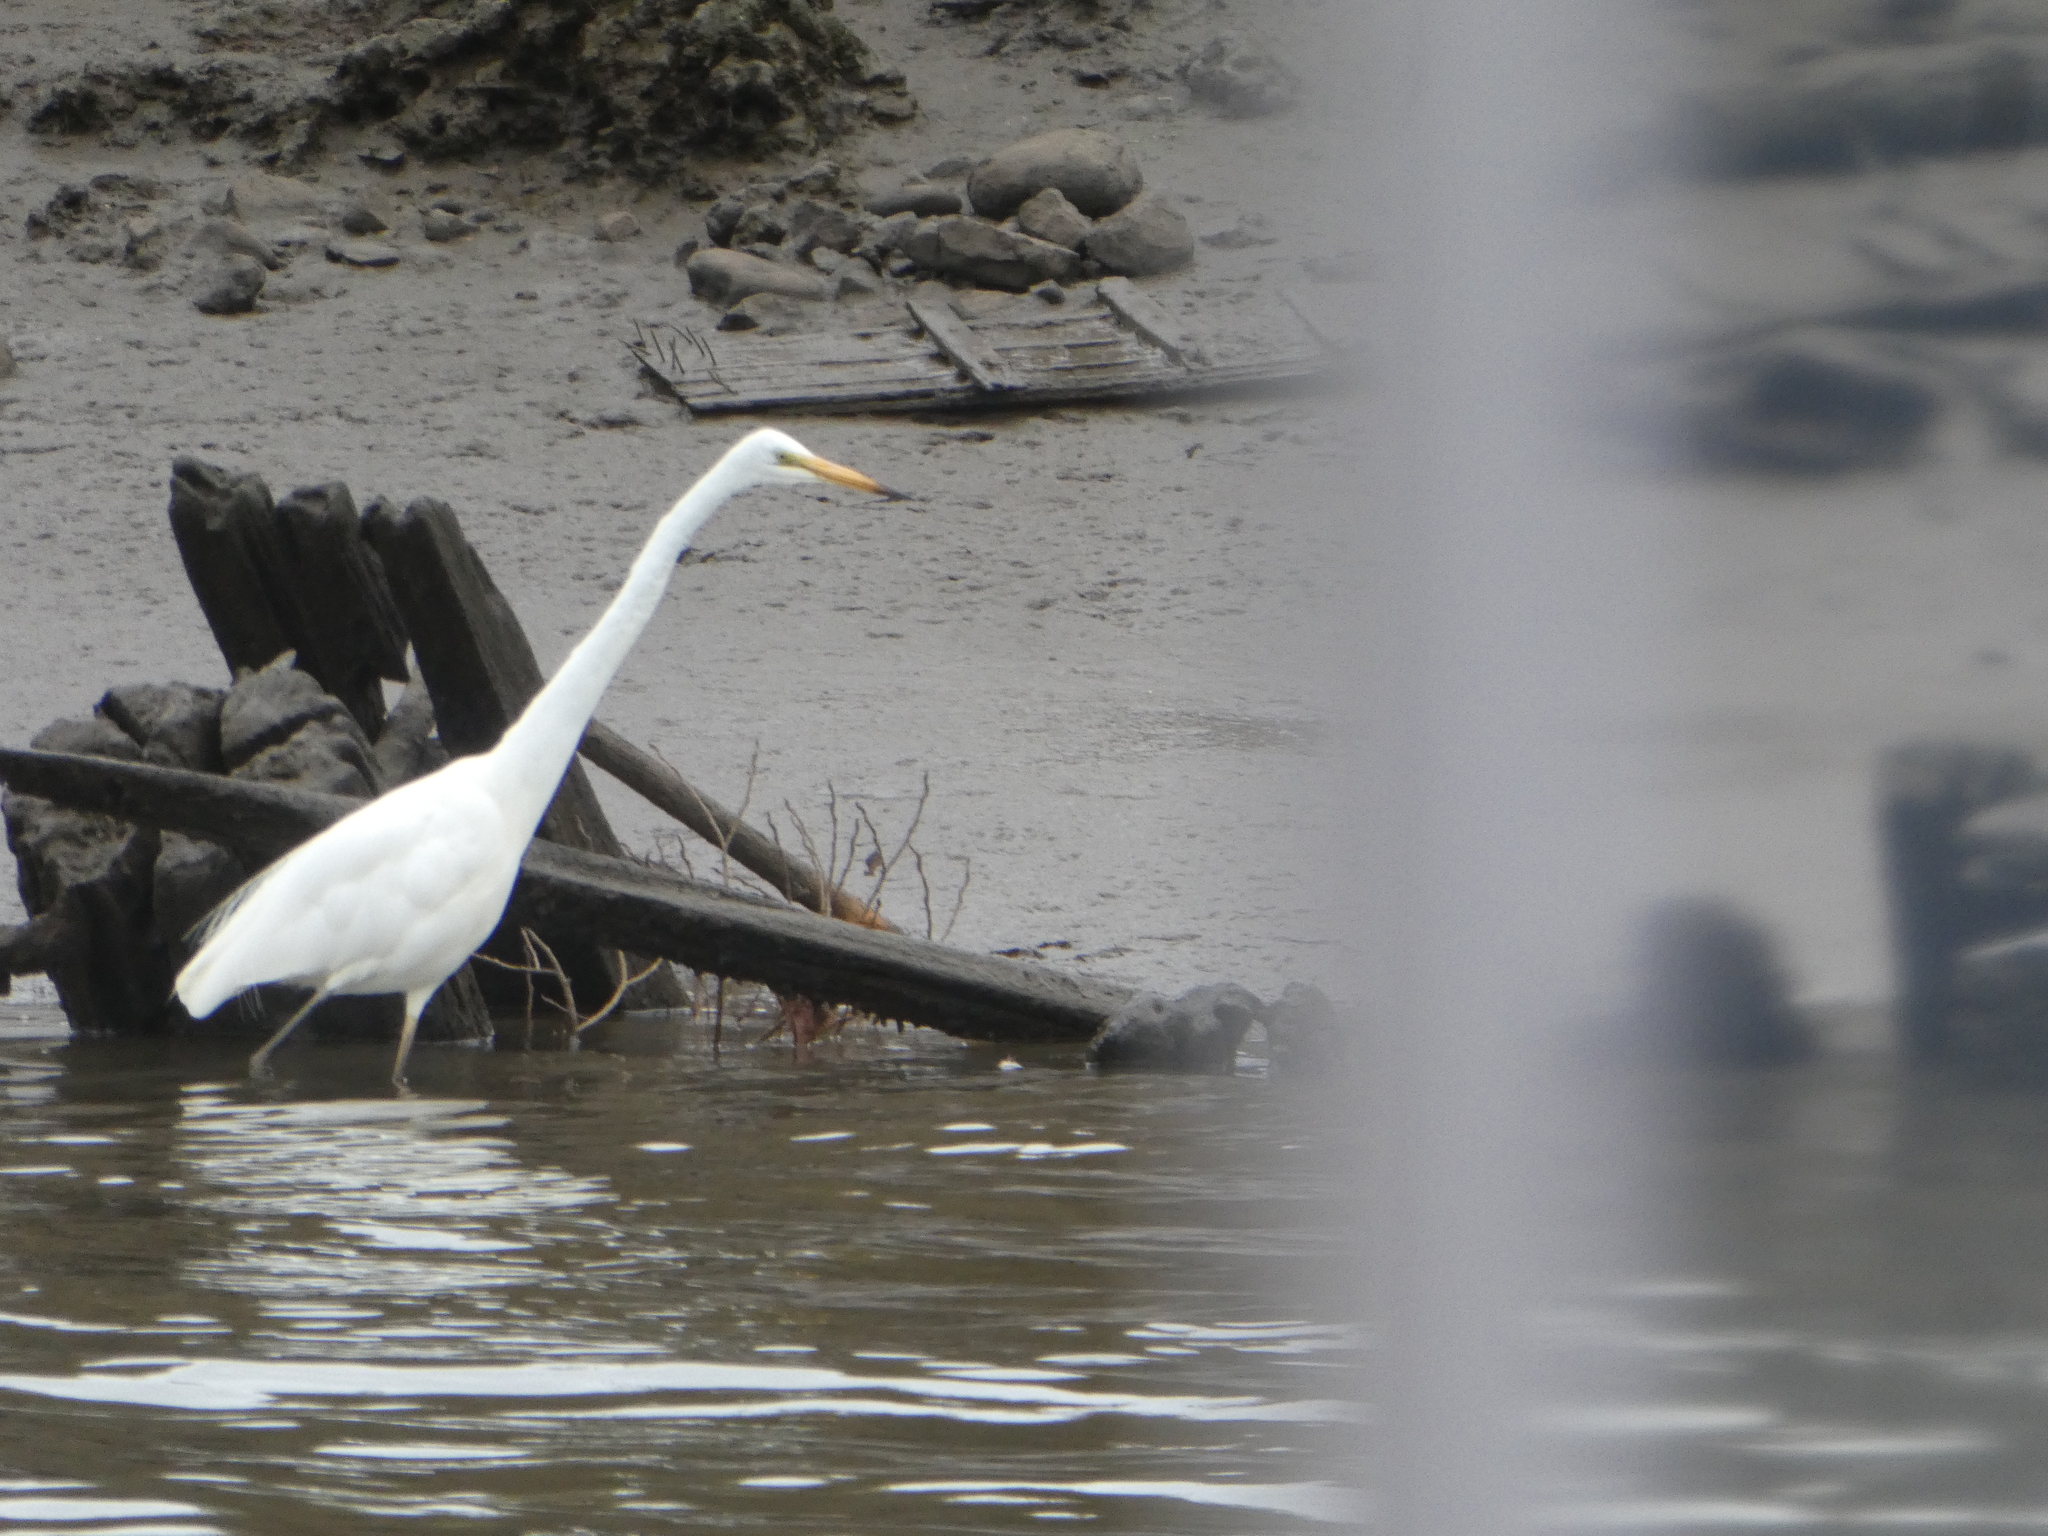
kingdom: Animalia
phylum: Chordata
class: Aves
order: Pelecaniformes
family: Ardeidae
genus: Ardea
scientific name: Ardea modesta
